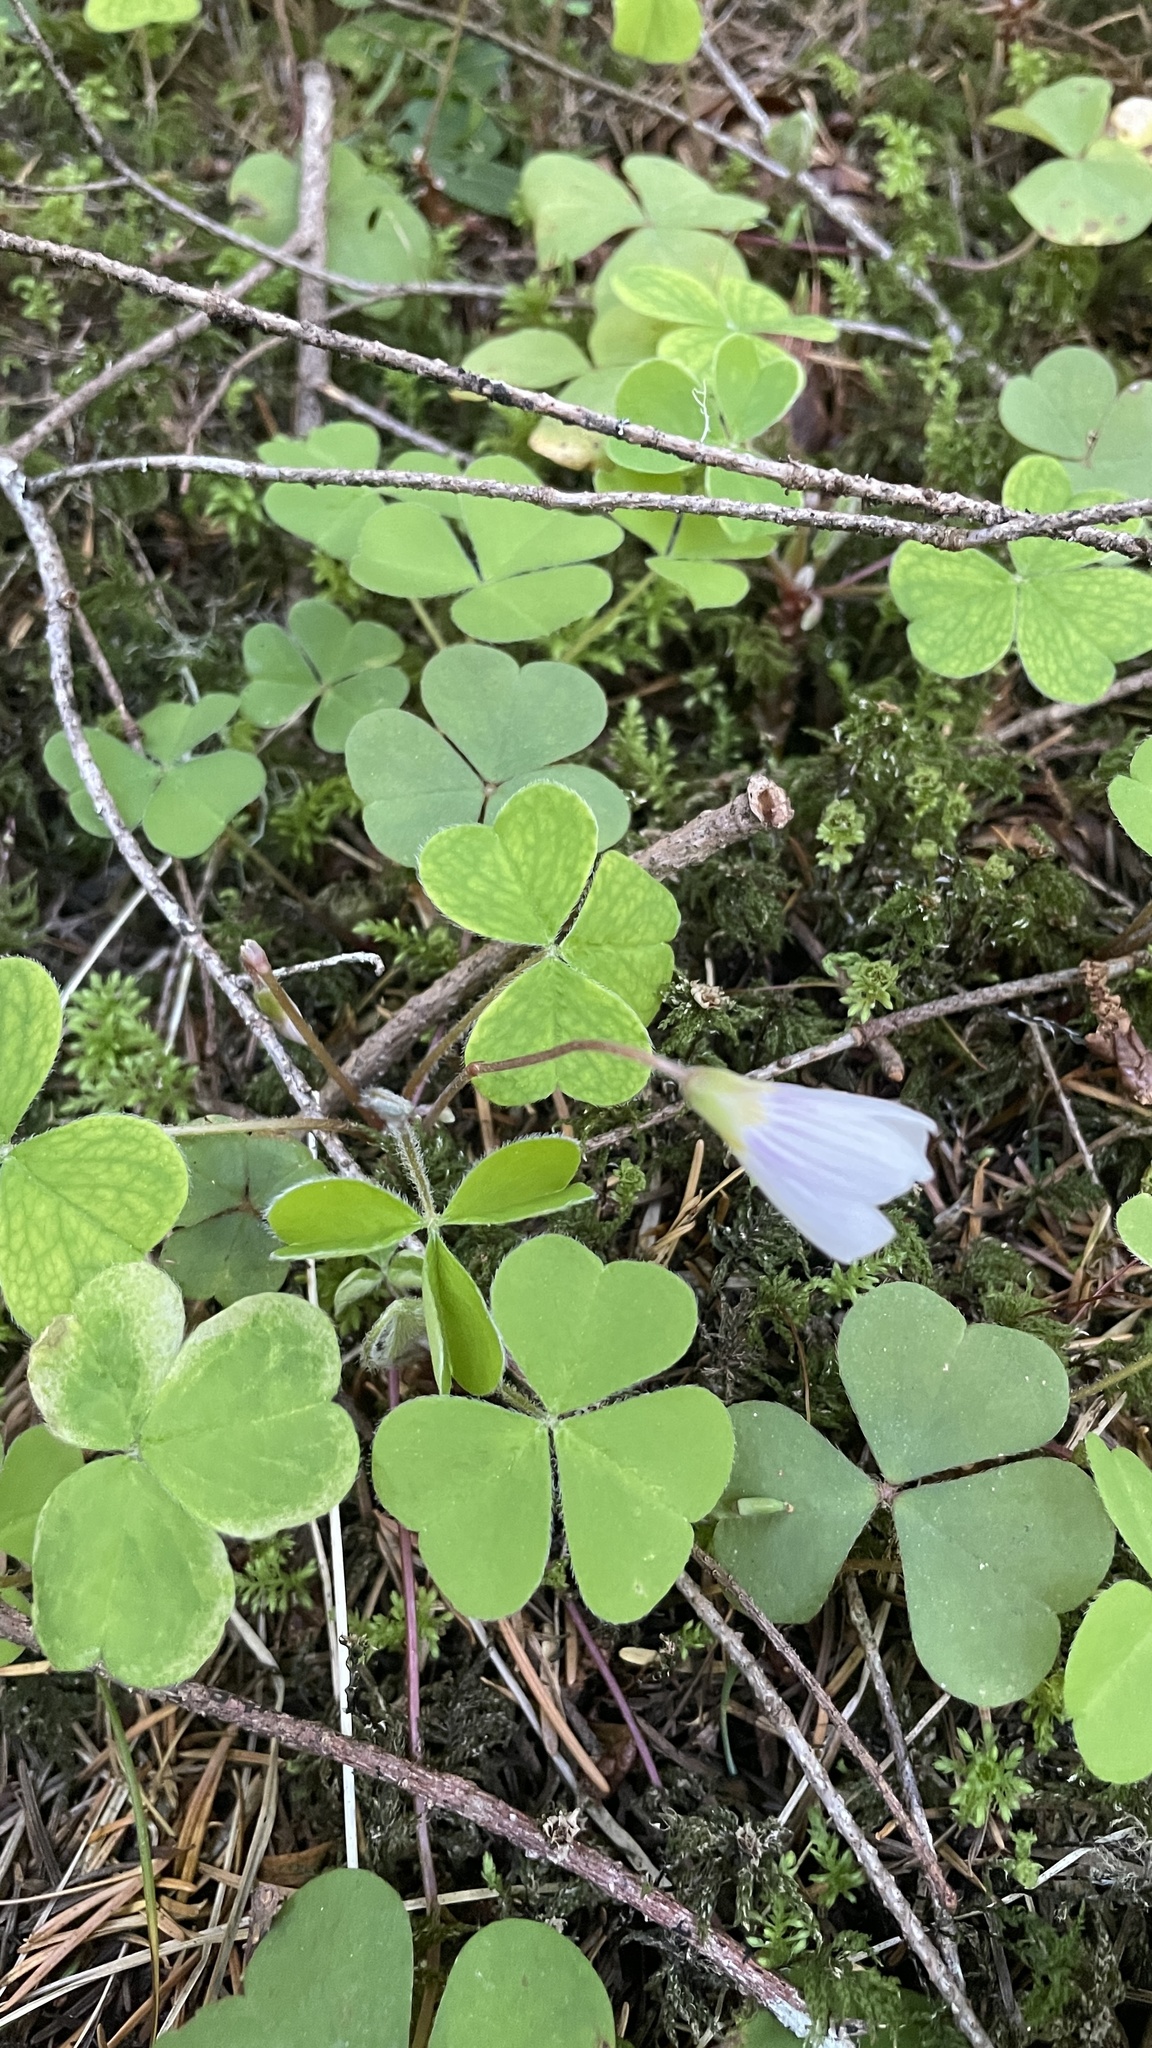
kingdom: Plantae
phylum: Tracheophyta
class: Magnoliopsida
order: Oxalidales
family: Oxalidaceae
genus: Oxalis
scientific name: Oxalis oregana
